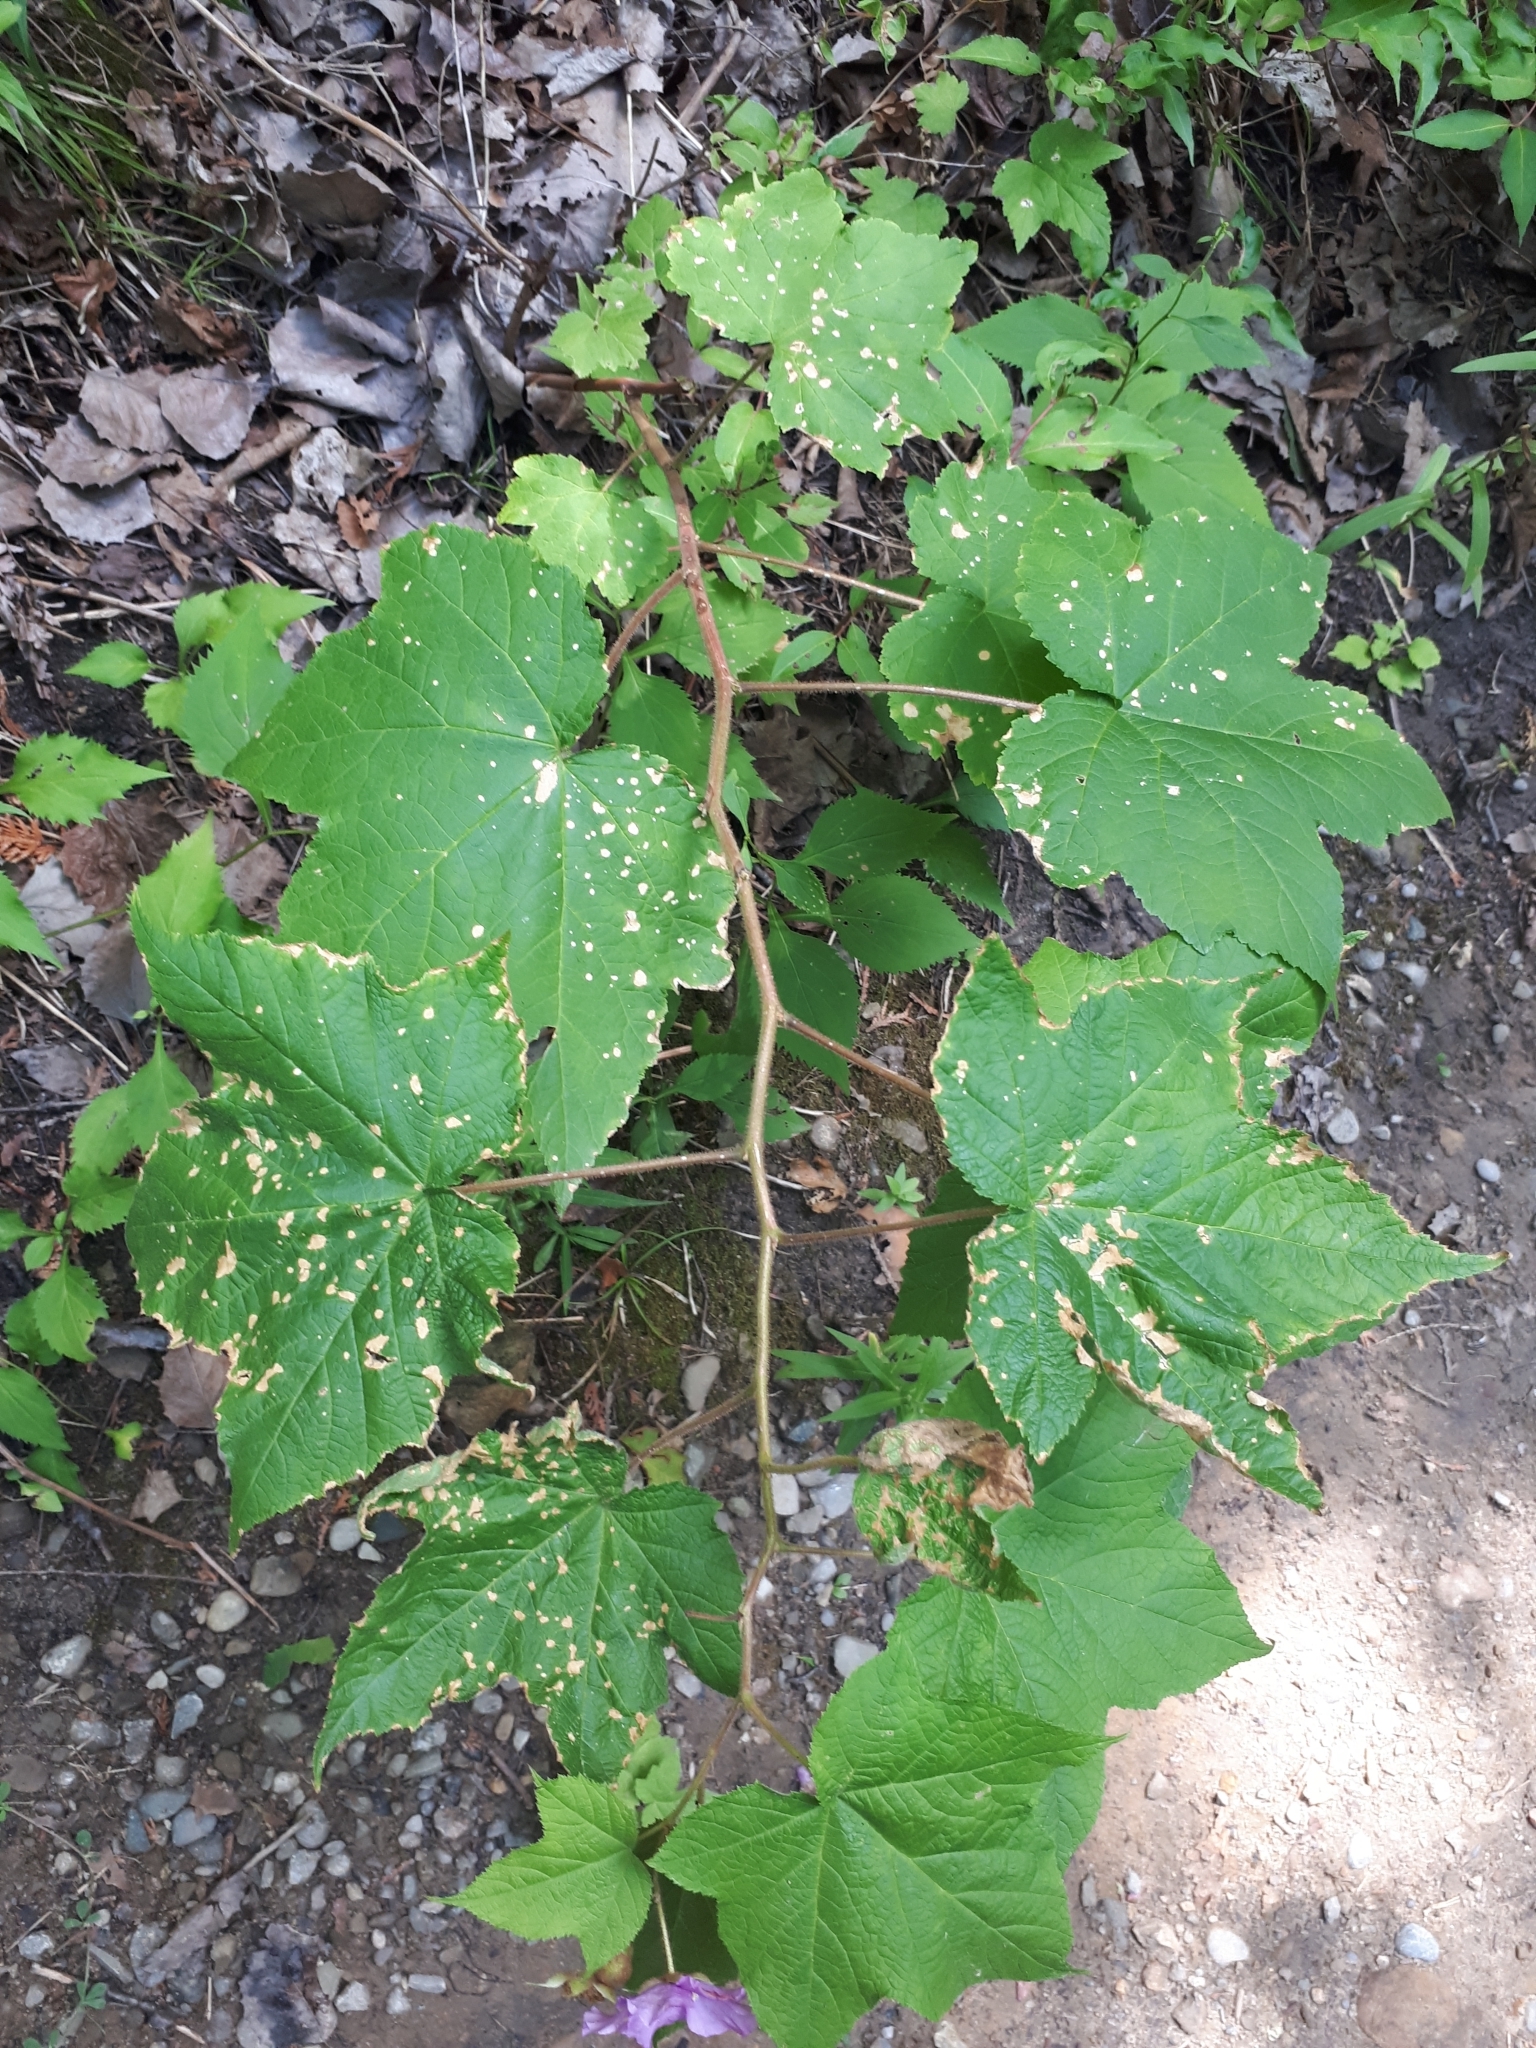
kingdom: Plantae
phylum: Tracheophyta
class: Magnoliopsida
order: Rosales
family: Rosaceae
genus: Rubus
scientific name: Rubus odoratus
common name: Purple-flowered raspberry
